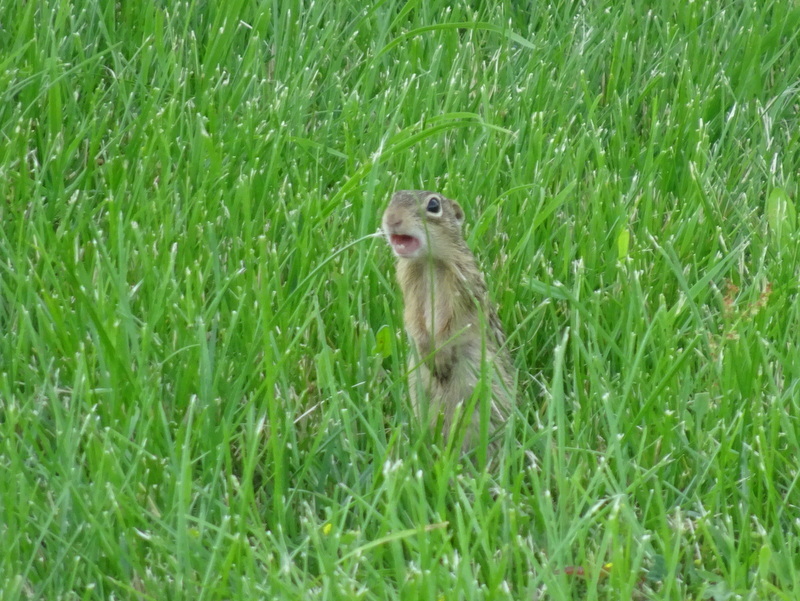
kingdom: Animalia
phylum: Chordata
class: Mammalia
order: Rodentia
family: Sciuridae
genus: Ictidomys
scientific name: Ictidomys tridecemlineatus
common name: Thirteen-lined ground squirrel
